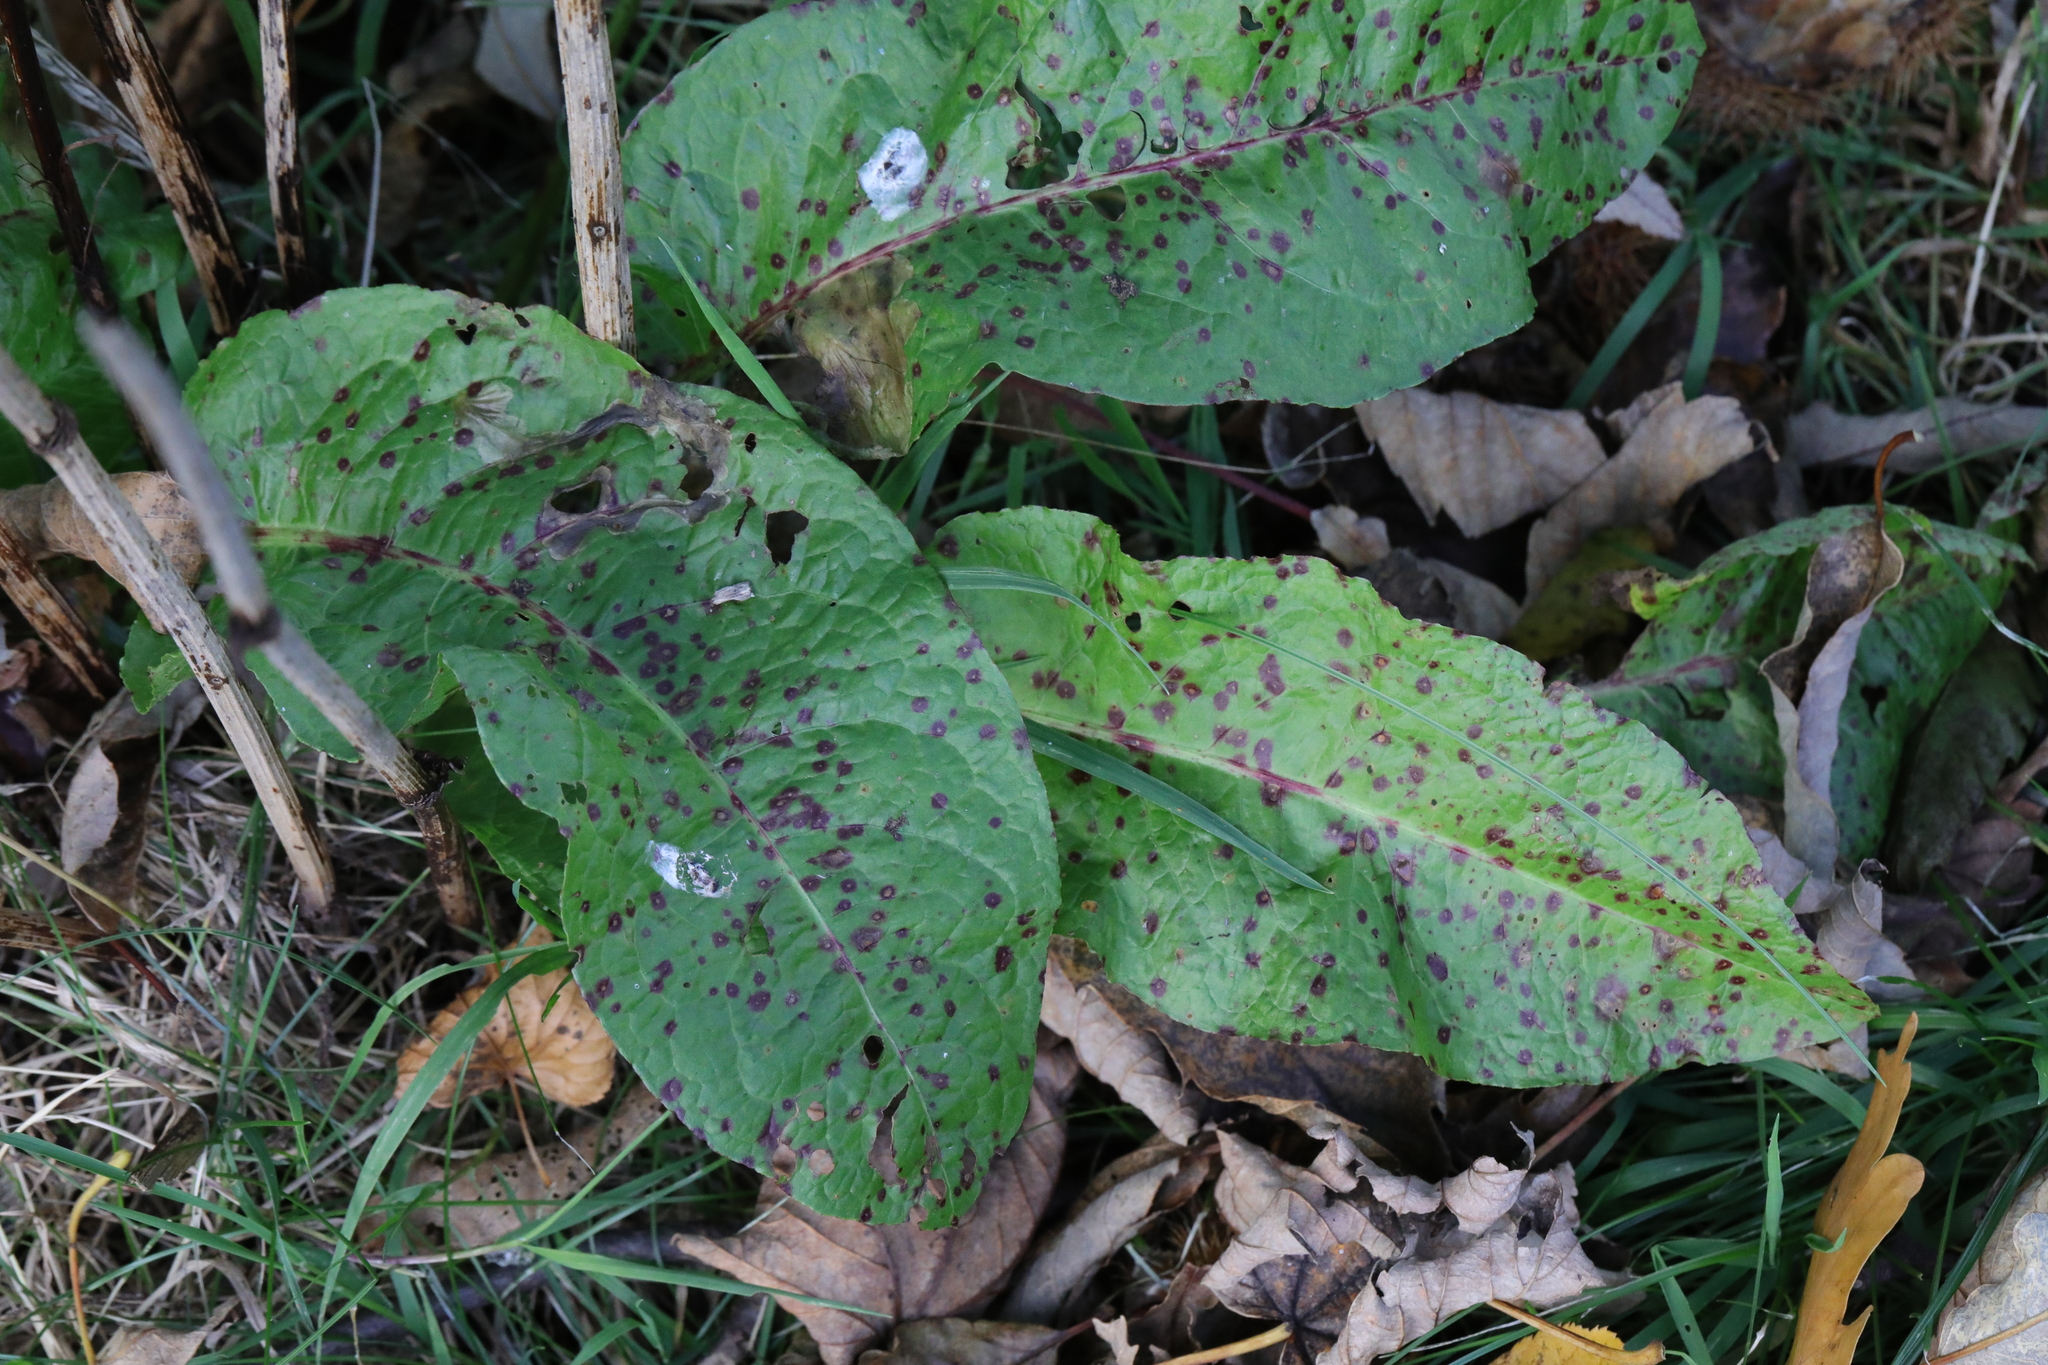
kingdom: Plantae
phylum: Tracheophyta
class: Magnoliopsida
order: Caryophyllales
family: Polygonaceae
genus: Rumex
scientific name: Rumex obtusifolius
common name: Bitter dock
